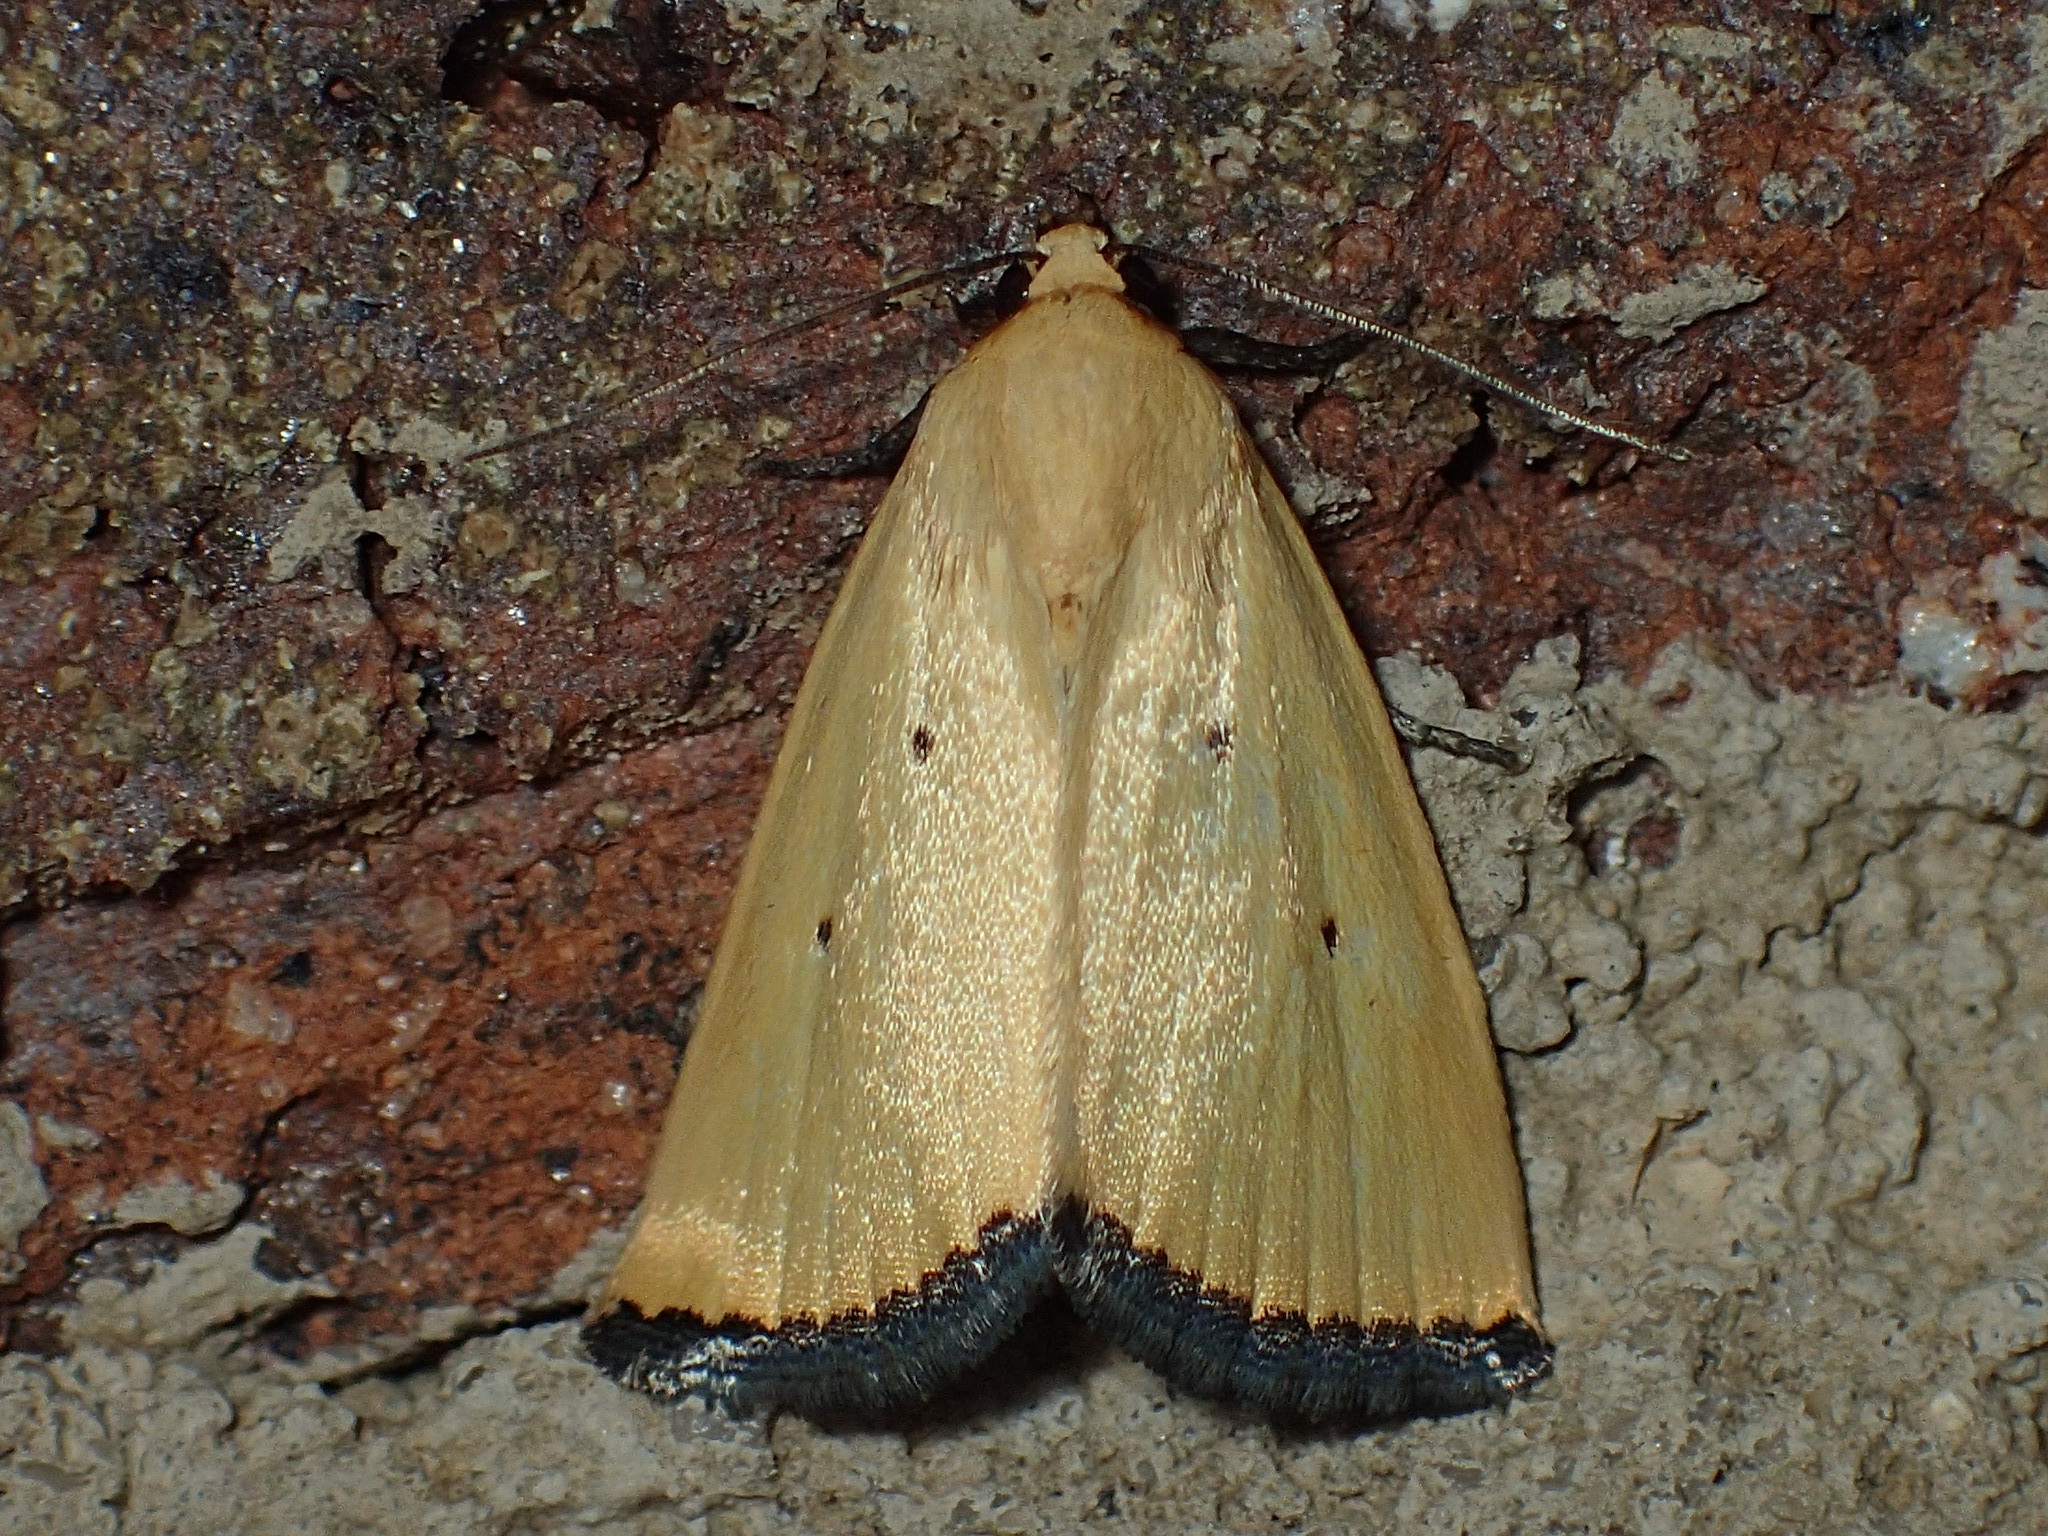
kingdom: Animalia
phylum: Arthropoda
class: Insecta
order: Lepidoptera
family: Noctuidae
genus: Marimatha
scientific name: Marimatha nigrofimbria
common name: Black-bordered lemon moth
